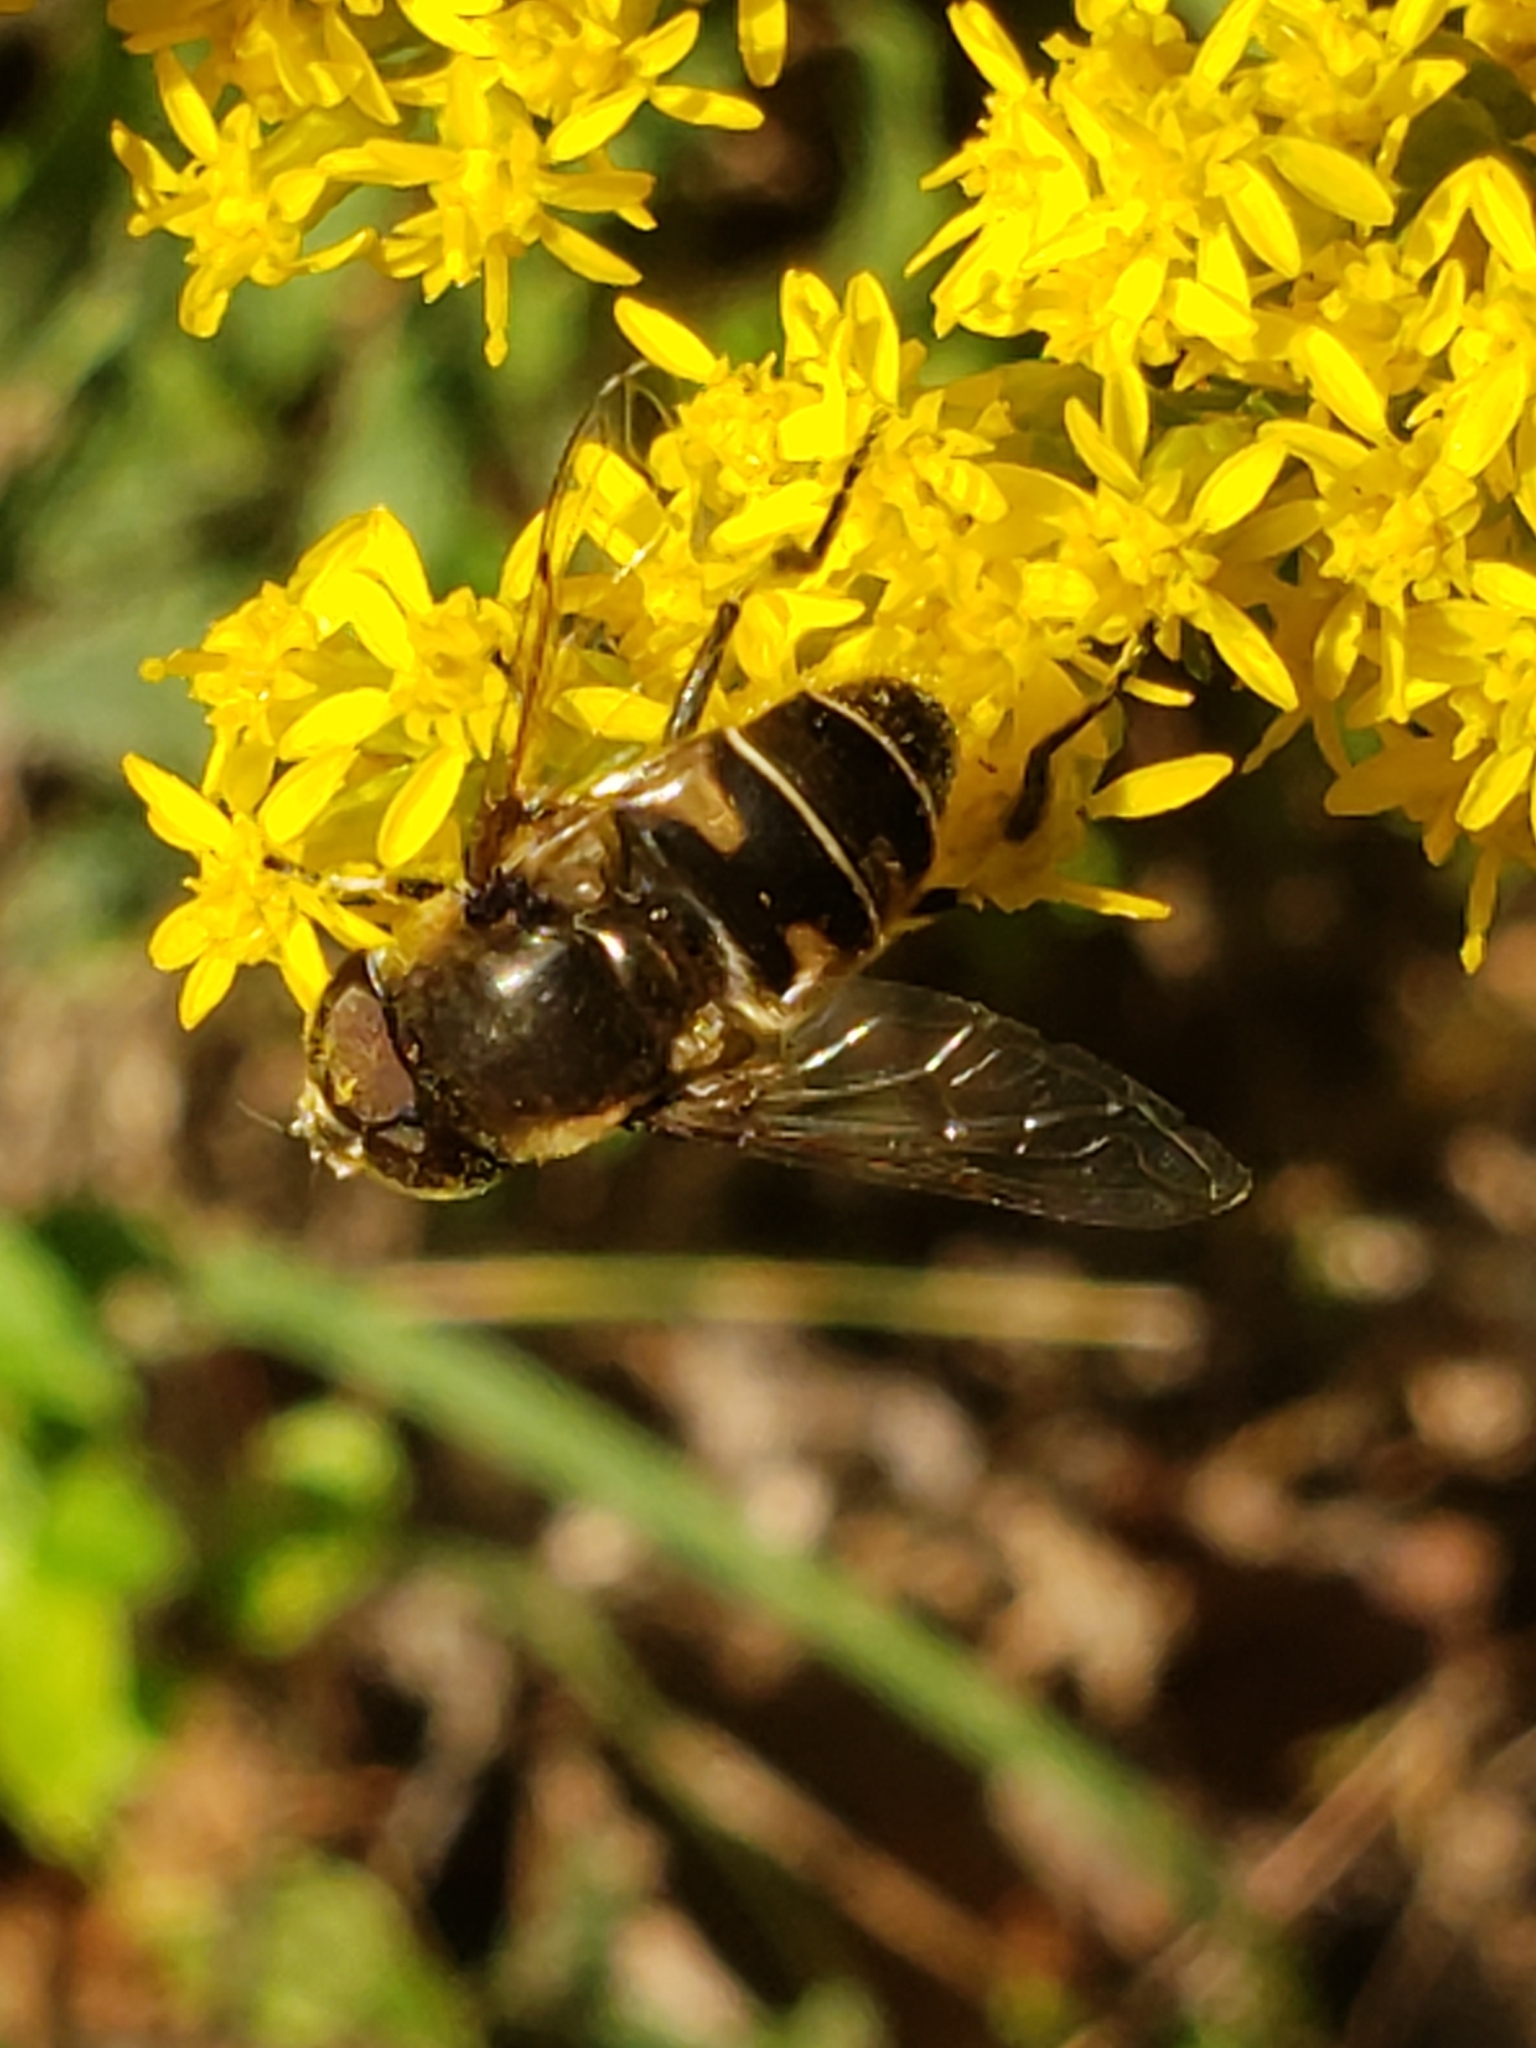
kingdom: Animalia
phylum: Arthropoda
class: Insecta
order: Diptera
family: Syrphidae
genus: Eristalis
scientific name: Eristalis dimidiata
